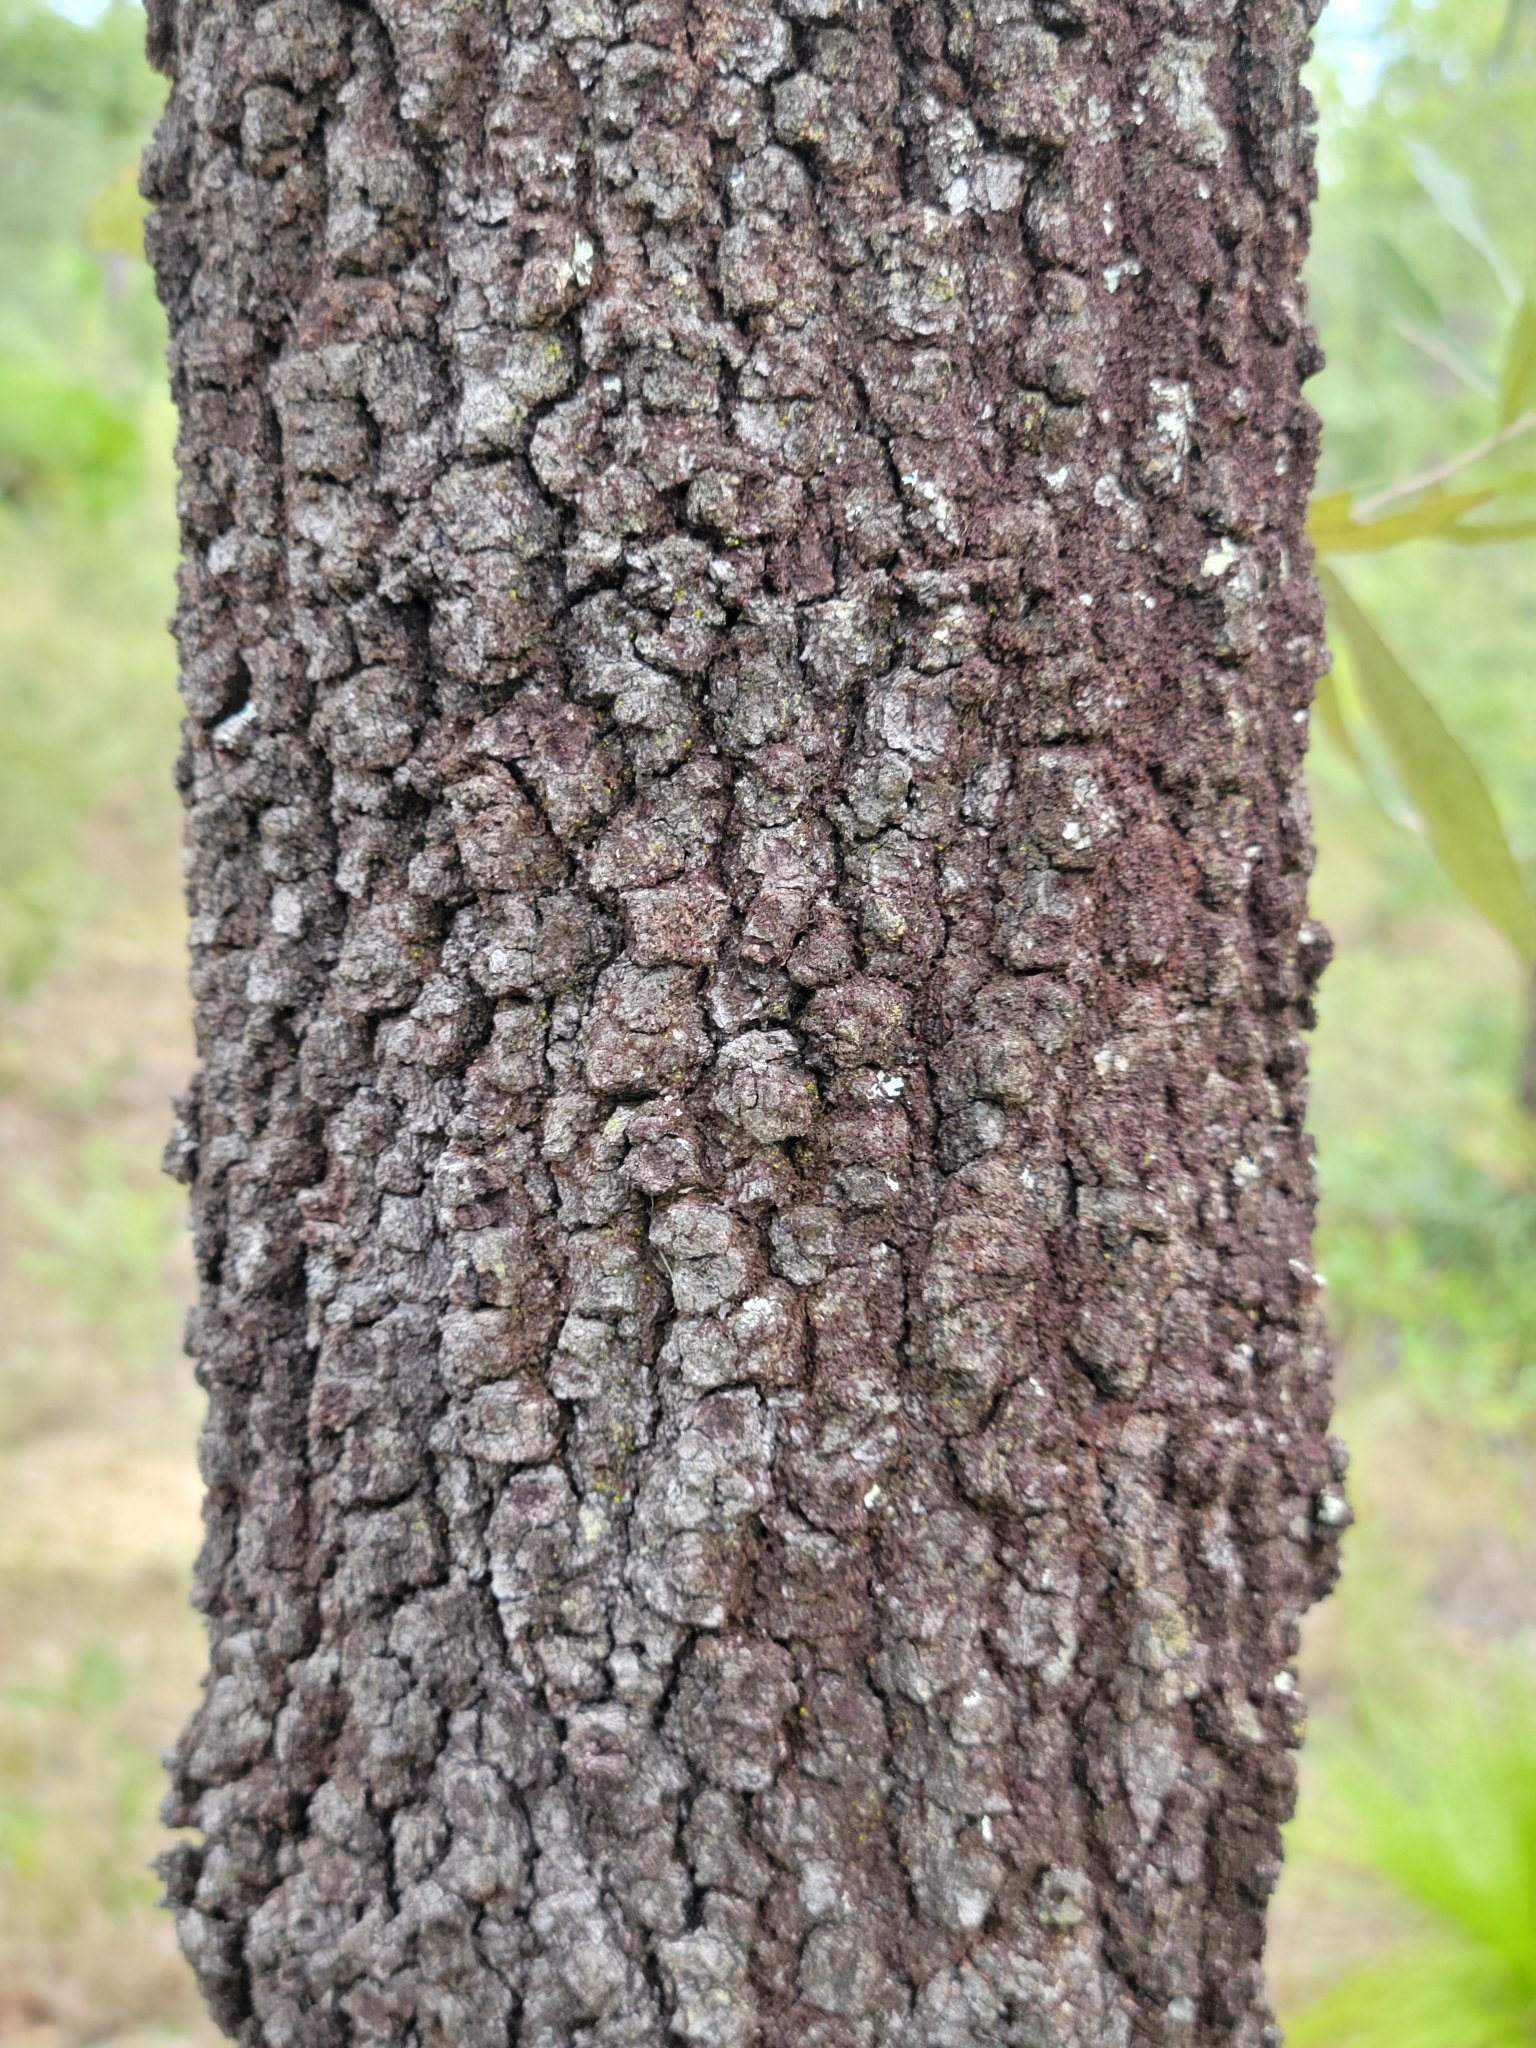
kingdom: Plantae
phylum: Tracheophyta
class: Magnoliopsida
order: Fagales
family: Fagaceae
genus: Quercus
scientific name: Quercus incana
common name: Bluejack oak
